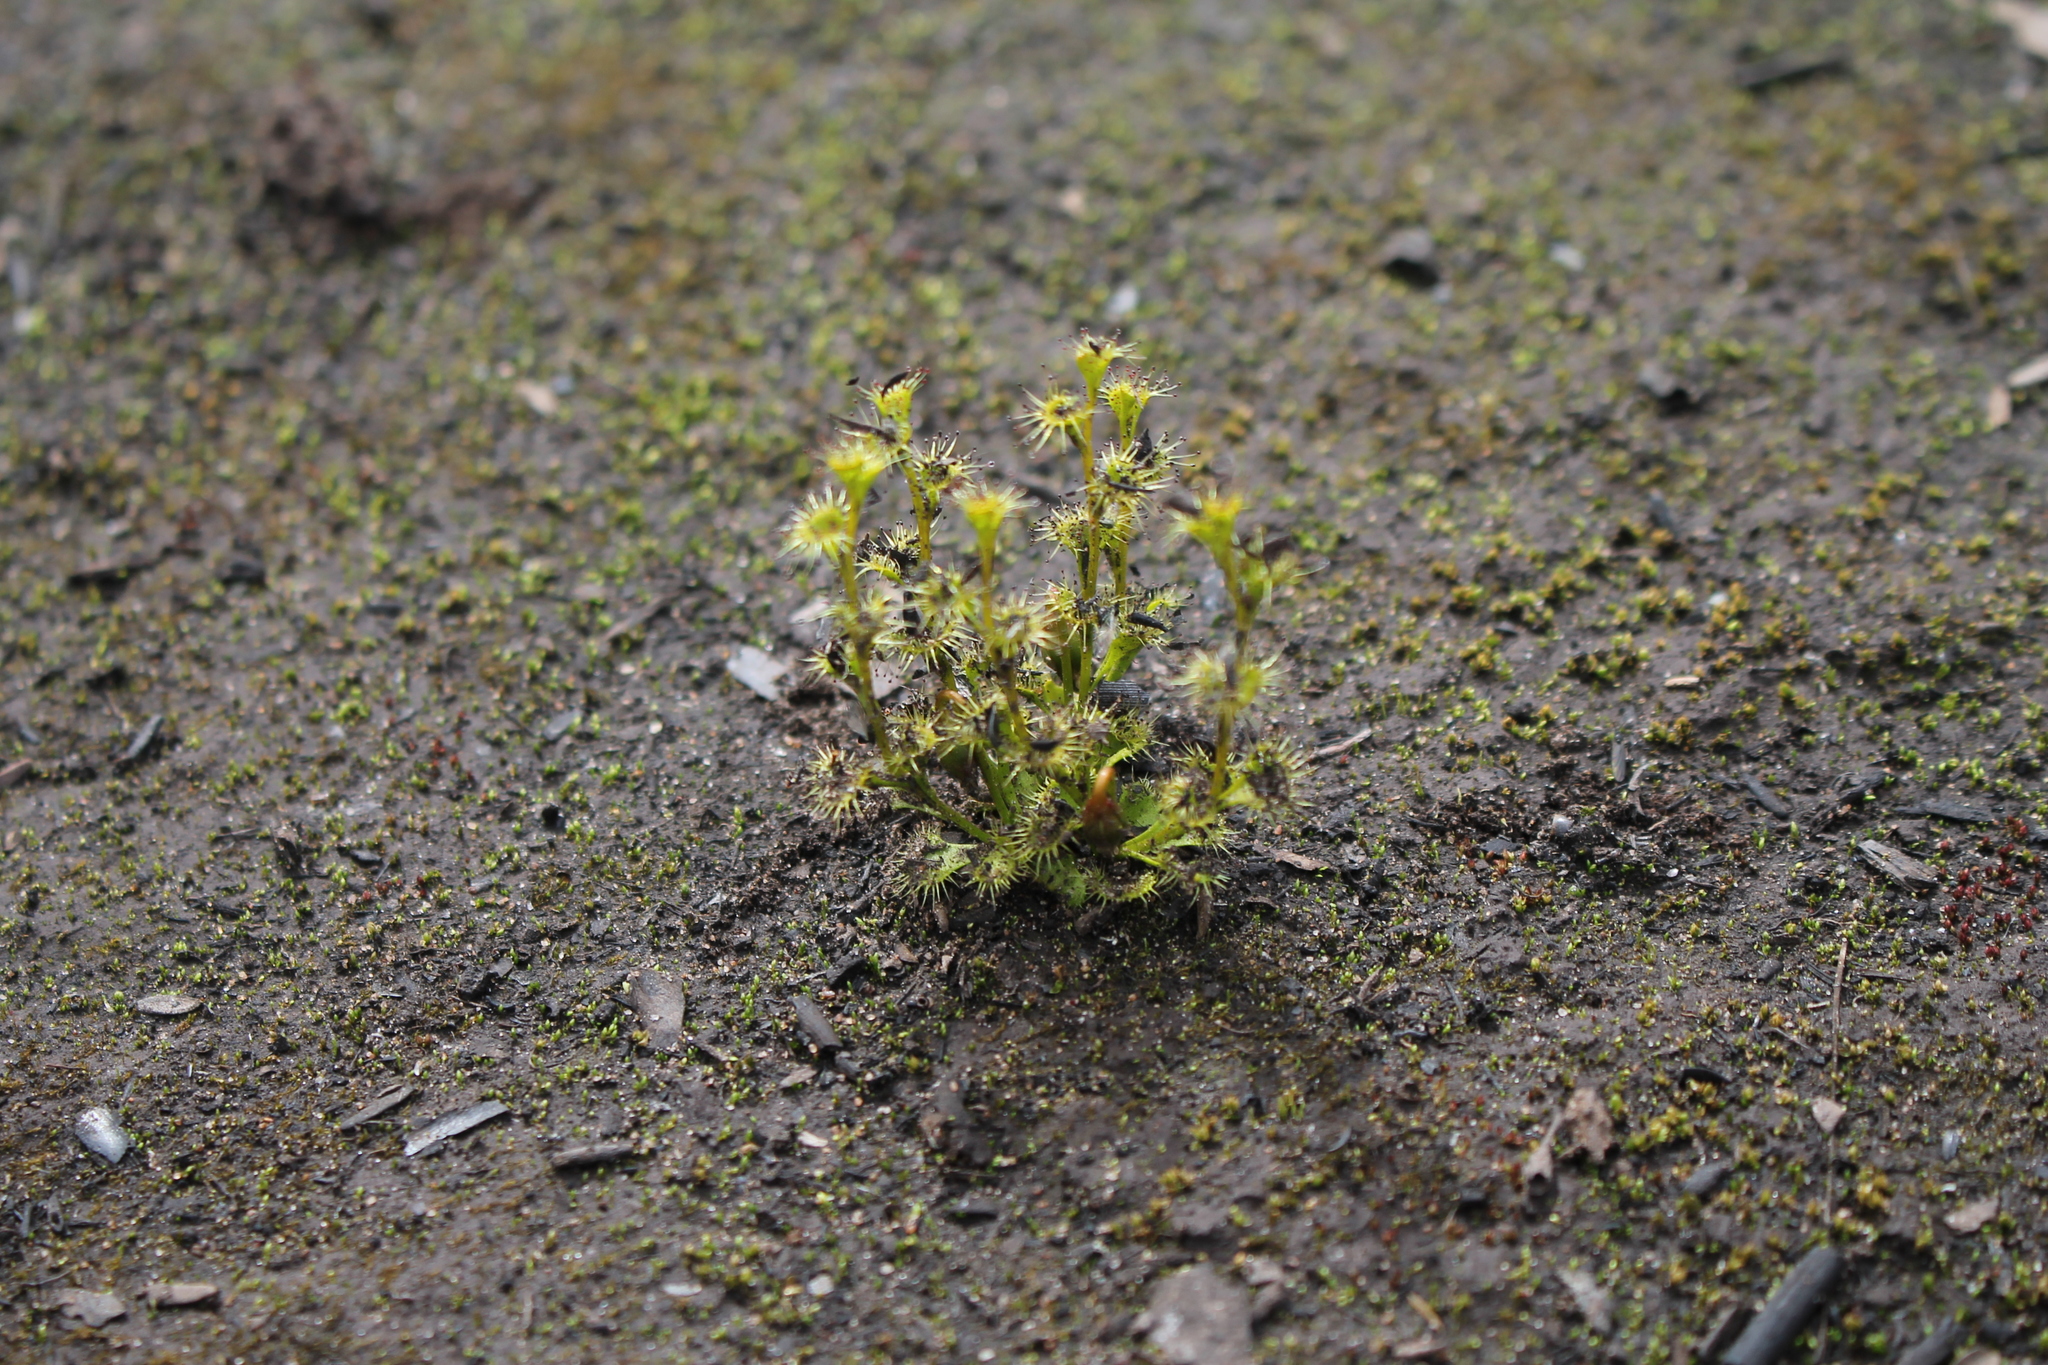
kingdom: Plantae
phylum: Tracheophyta
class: Magnoliopsida
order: Caryophyllales
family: Droseraceae
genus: Drosera
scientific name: Drosera ramellosa
